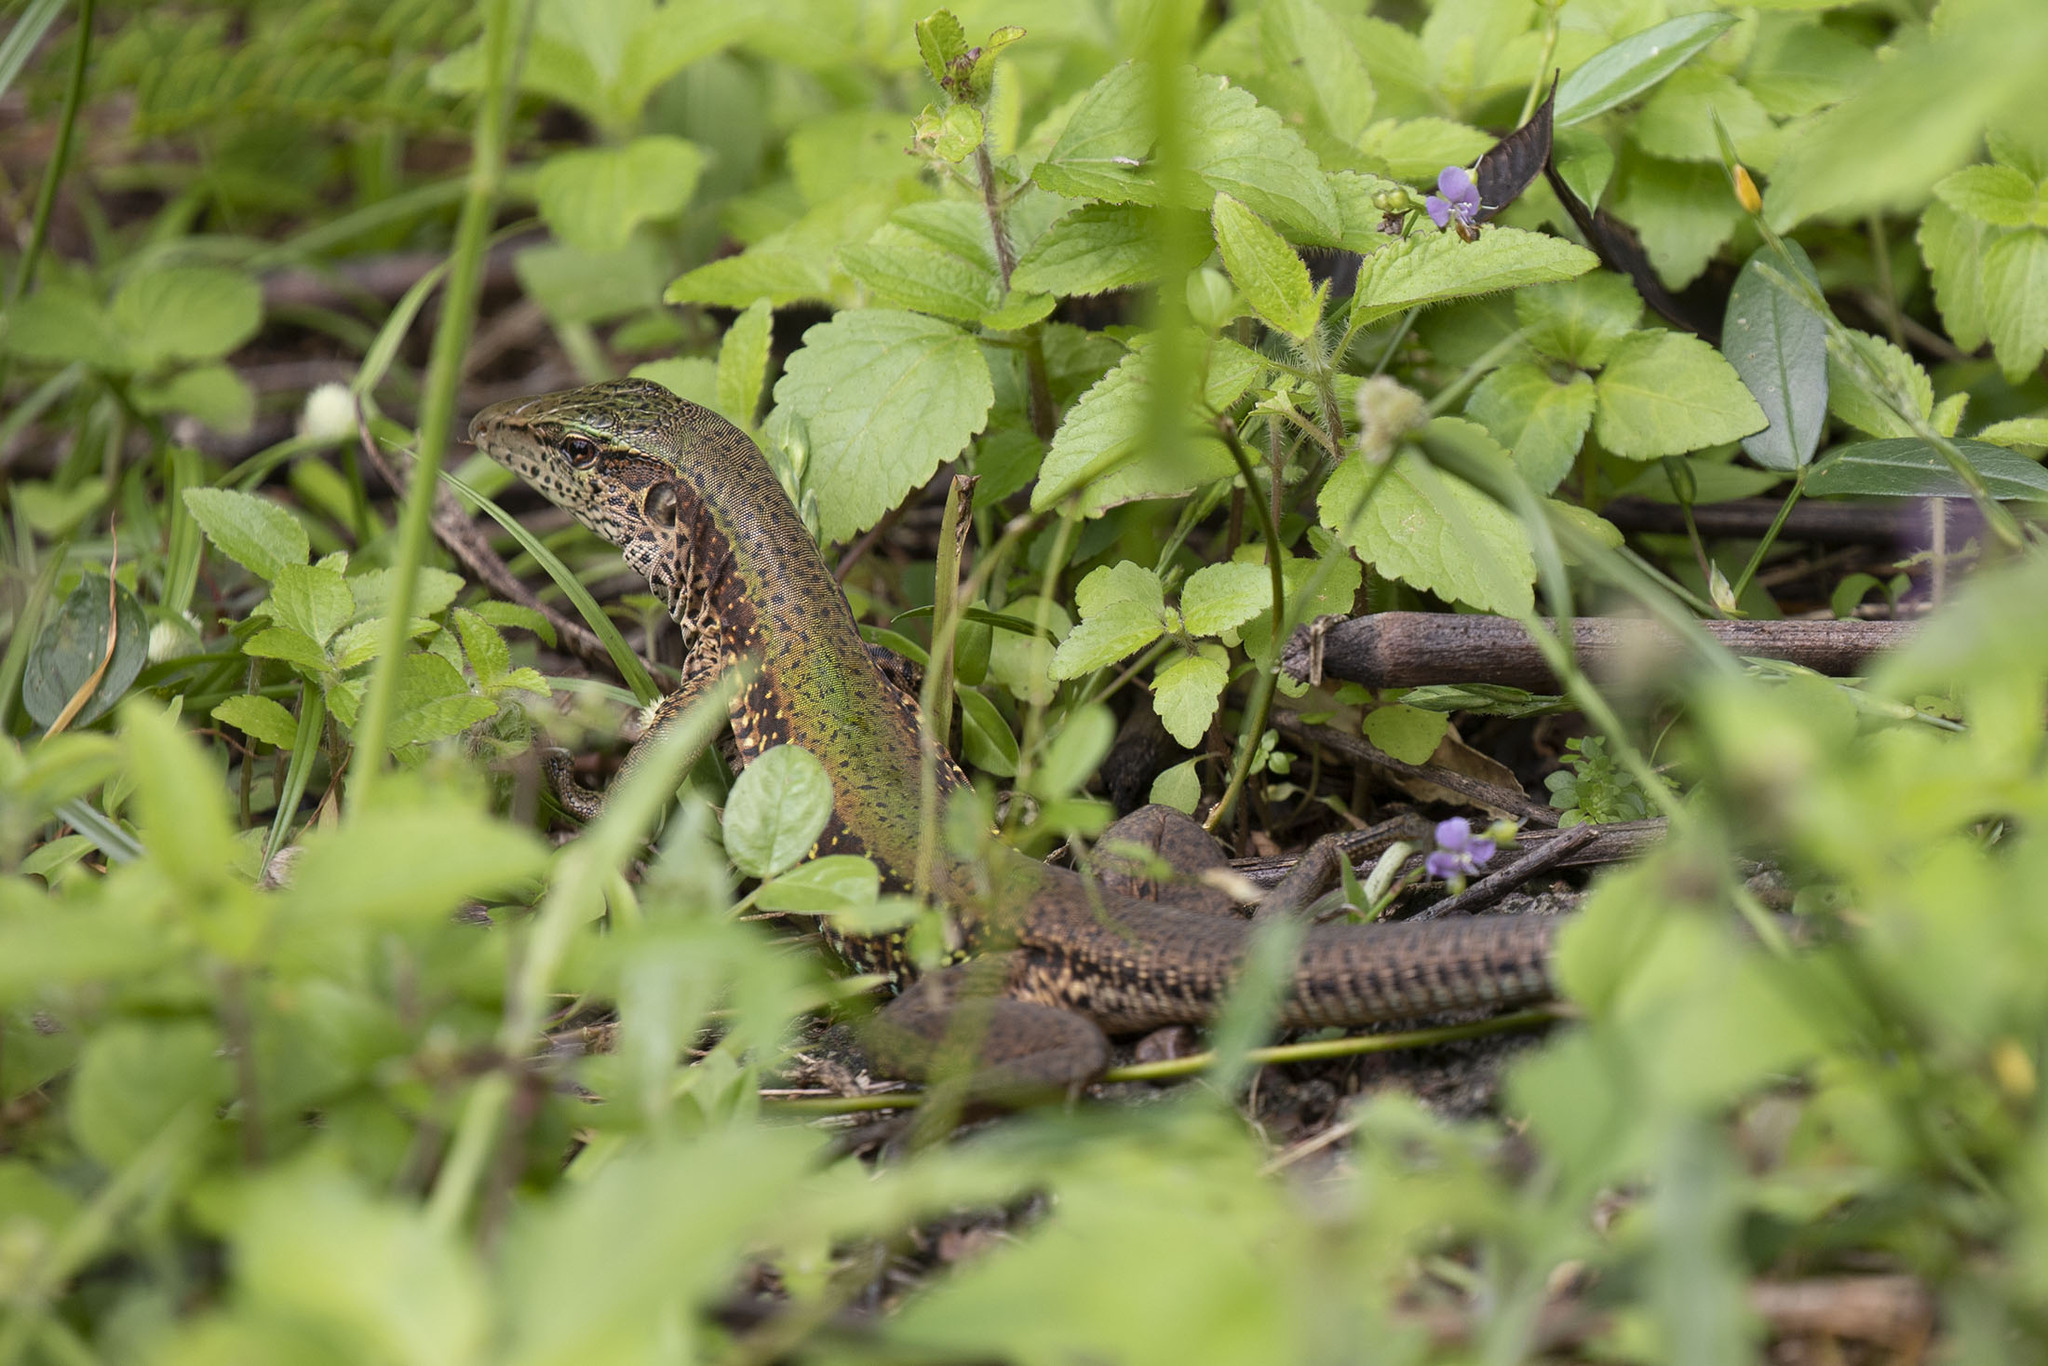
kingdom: Animalia
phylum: Chordata
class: Squamata
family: Teiidae
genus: Ameiva
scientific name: Ameiva ameiva
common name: Giant ameiva
